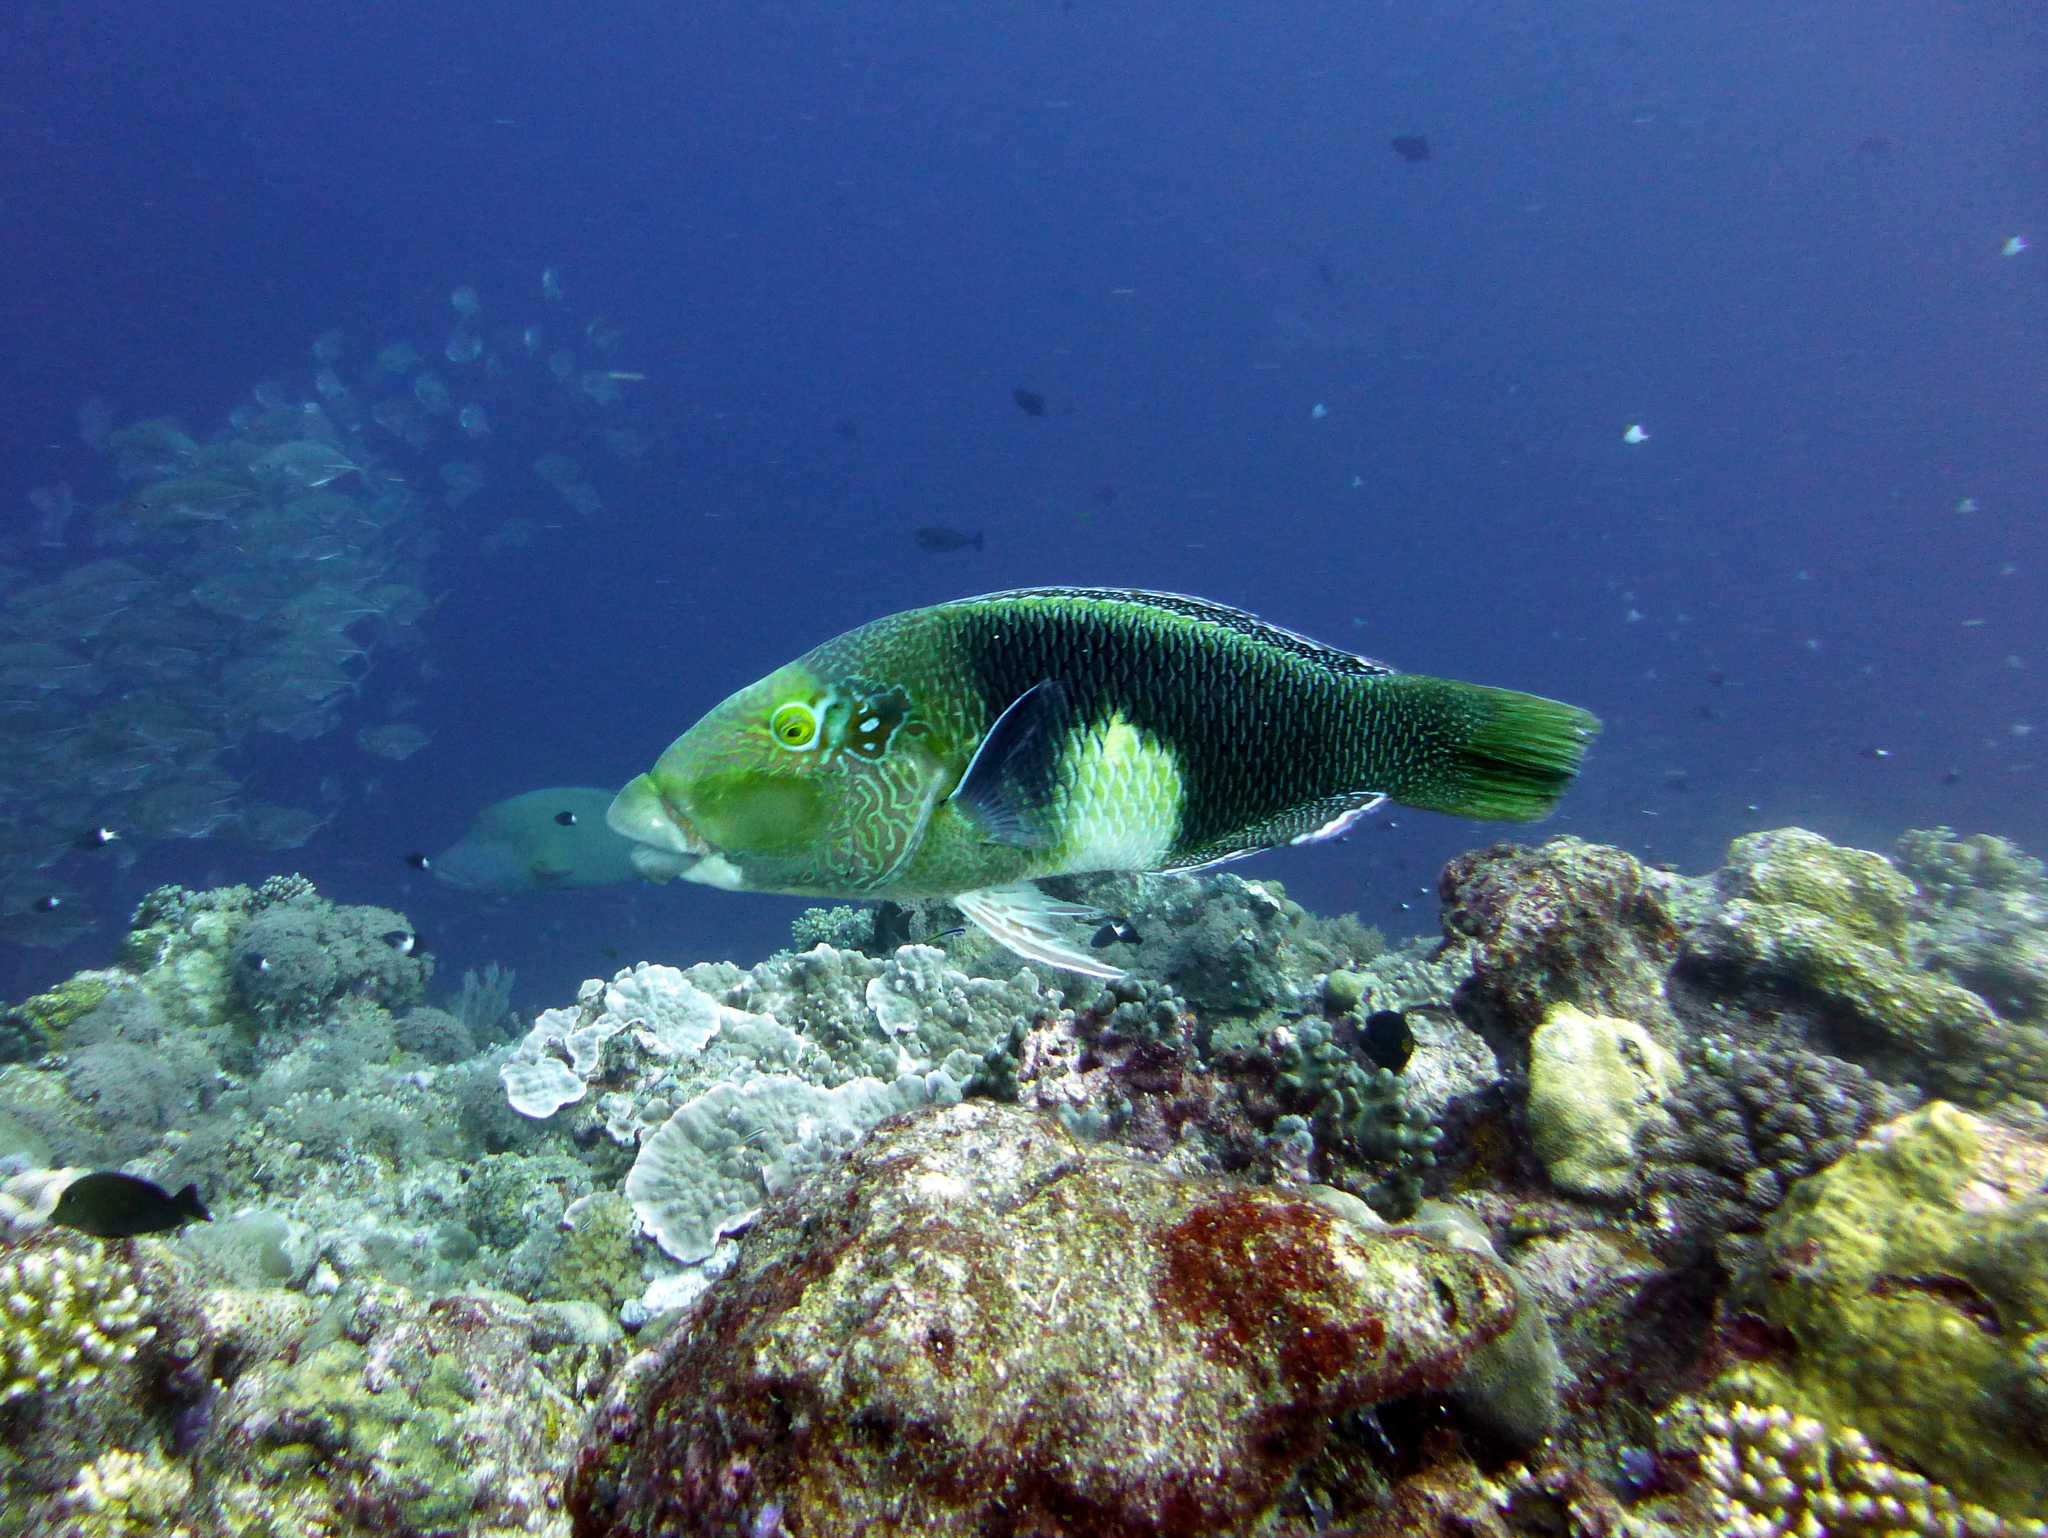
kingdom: Animalia
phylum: Chordata
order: Perciformes
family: Labridae
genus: Hemigymnus
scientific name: Hemigymnus melapterus
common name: Blackeye thicklip
